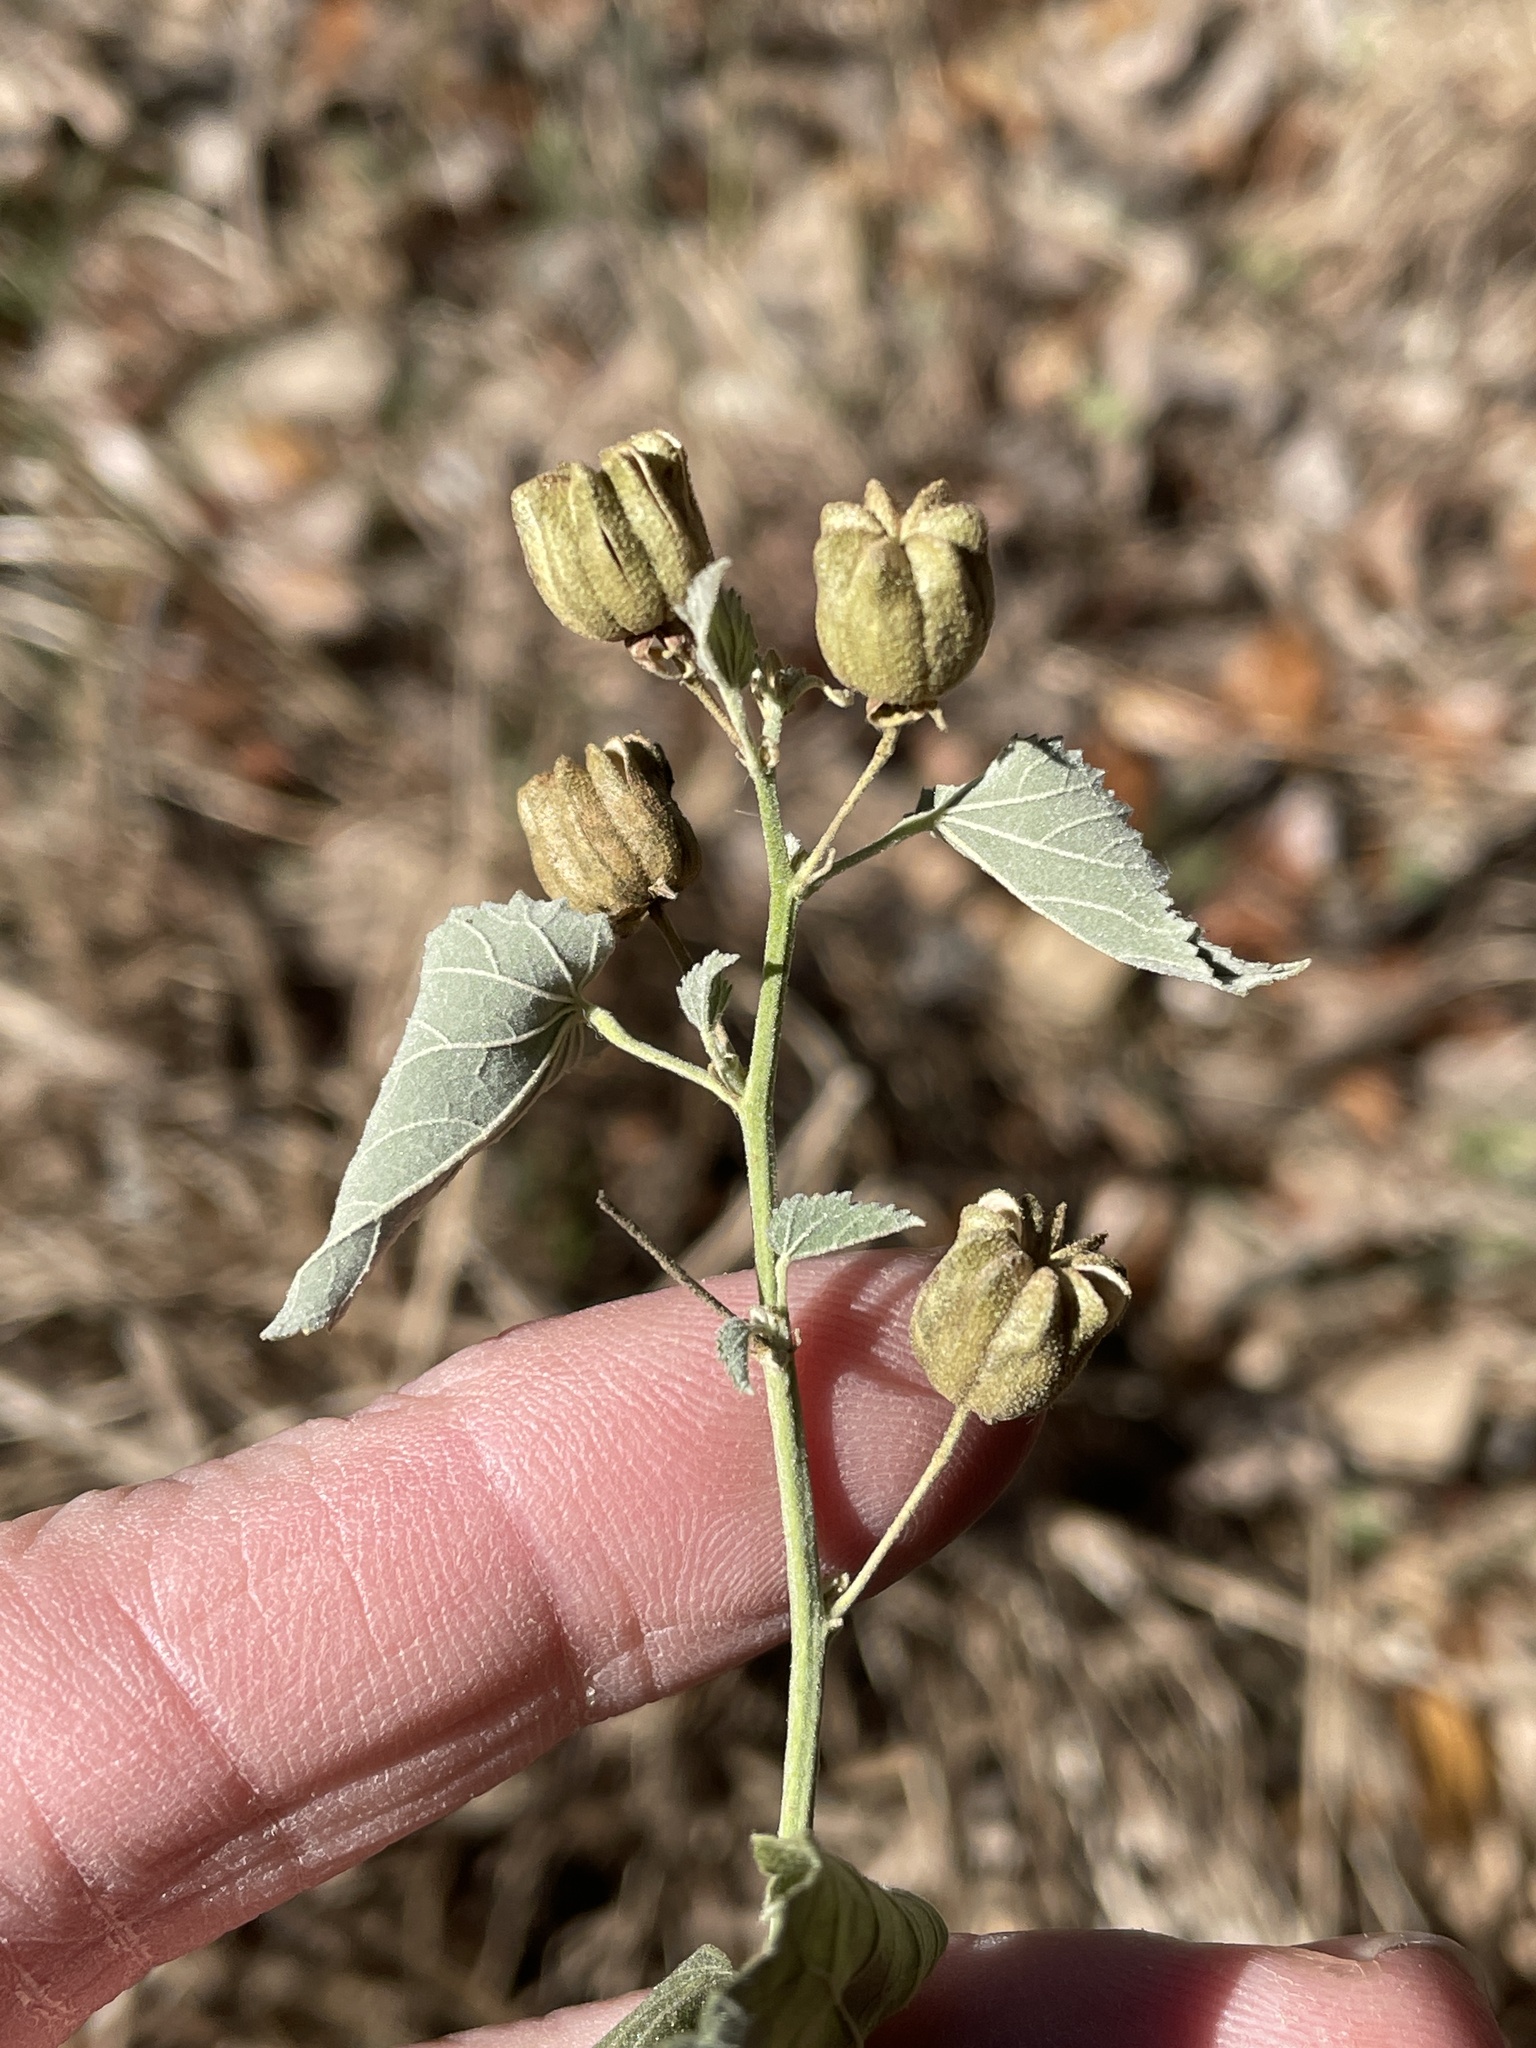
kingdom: Plantae
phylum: Tracheophyta
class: Magnoliopsida
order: Malvales
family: Malvaceae
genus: Abutilon
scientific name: Abutilon fruticosum
